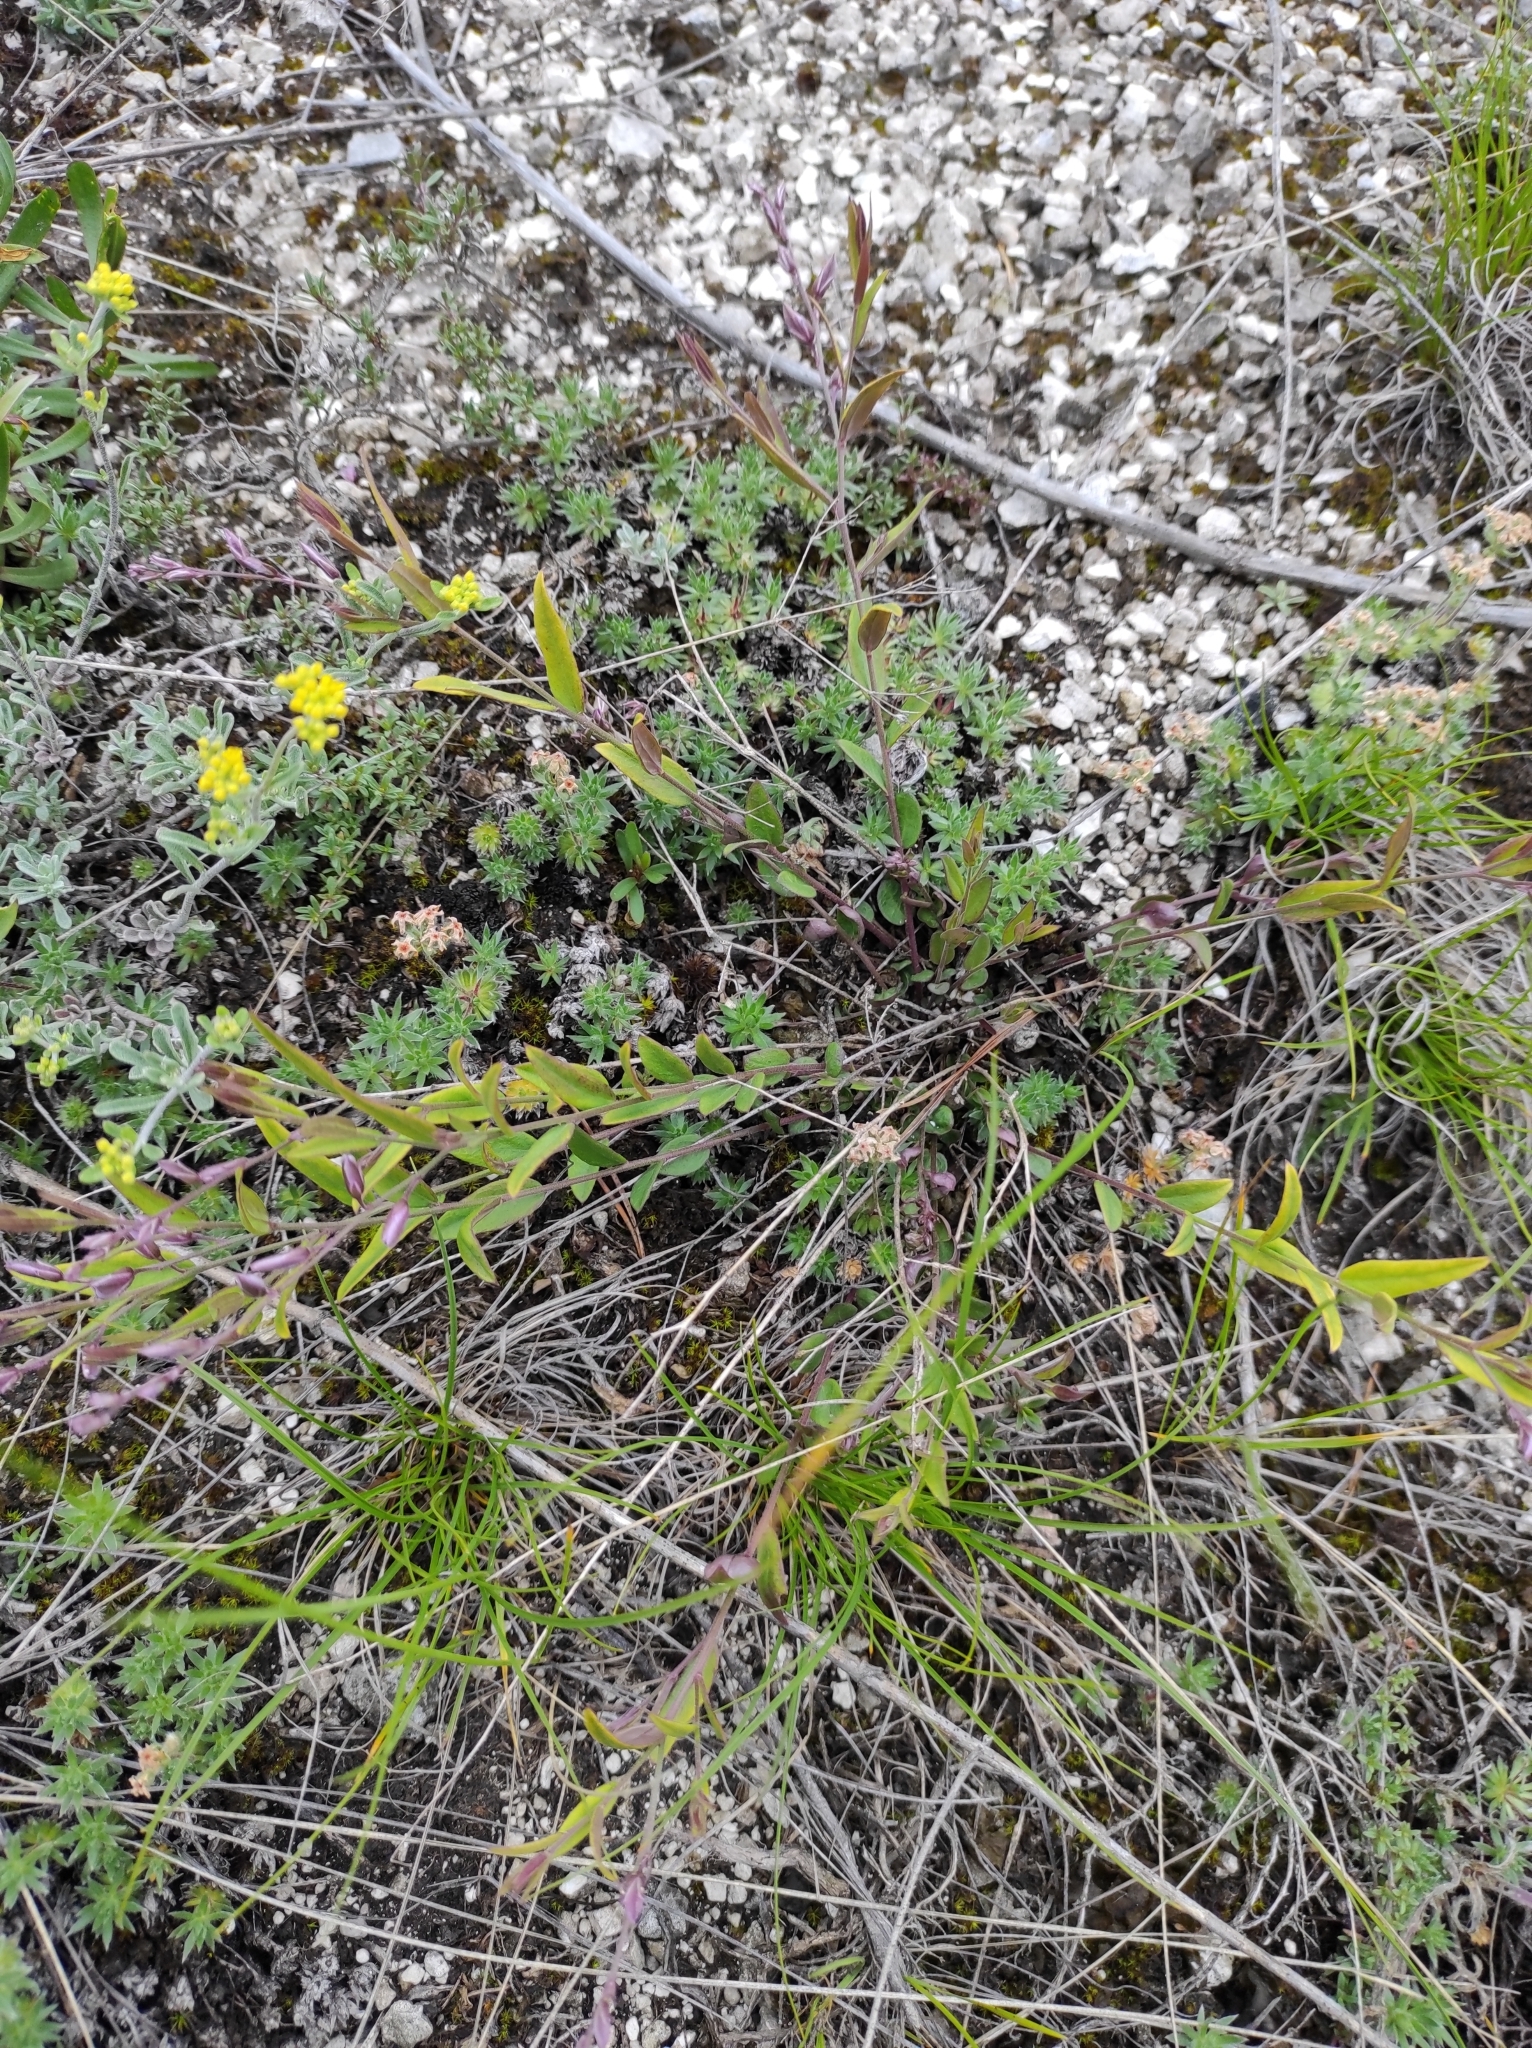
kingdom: Plantae
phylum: Tracheophyta
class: Magnoliopsida
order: Fabales
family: Polygalaceae
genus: Polygala
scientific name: Polygala sibirica
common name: Siberian polygala
